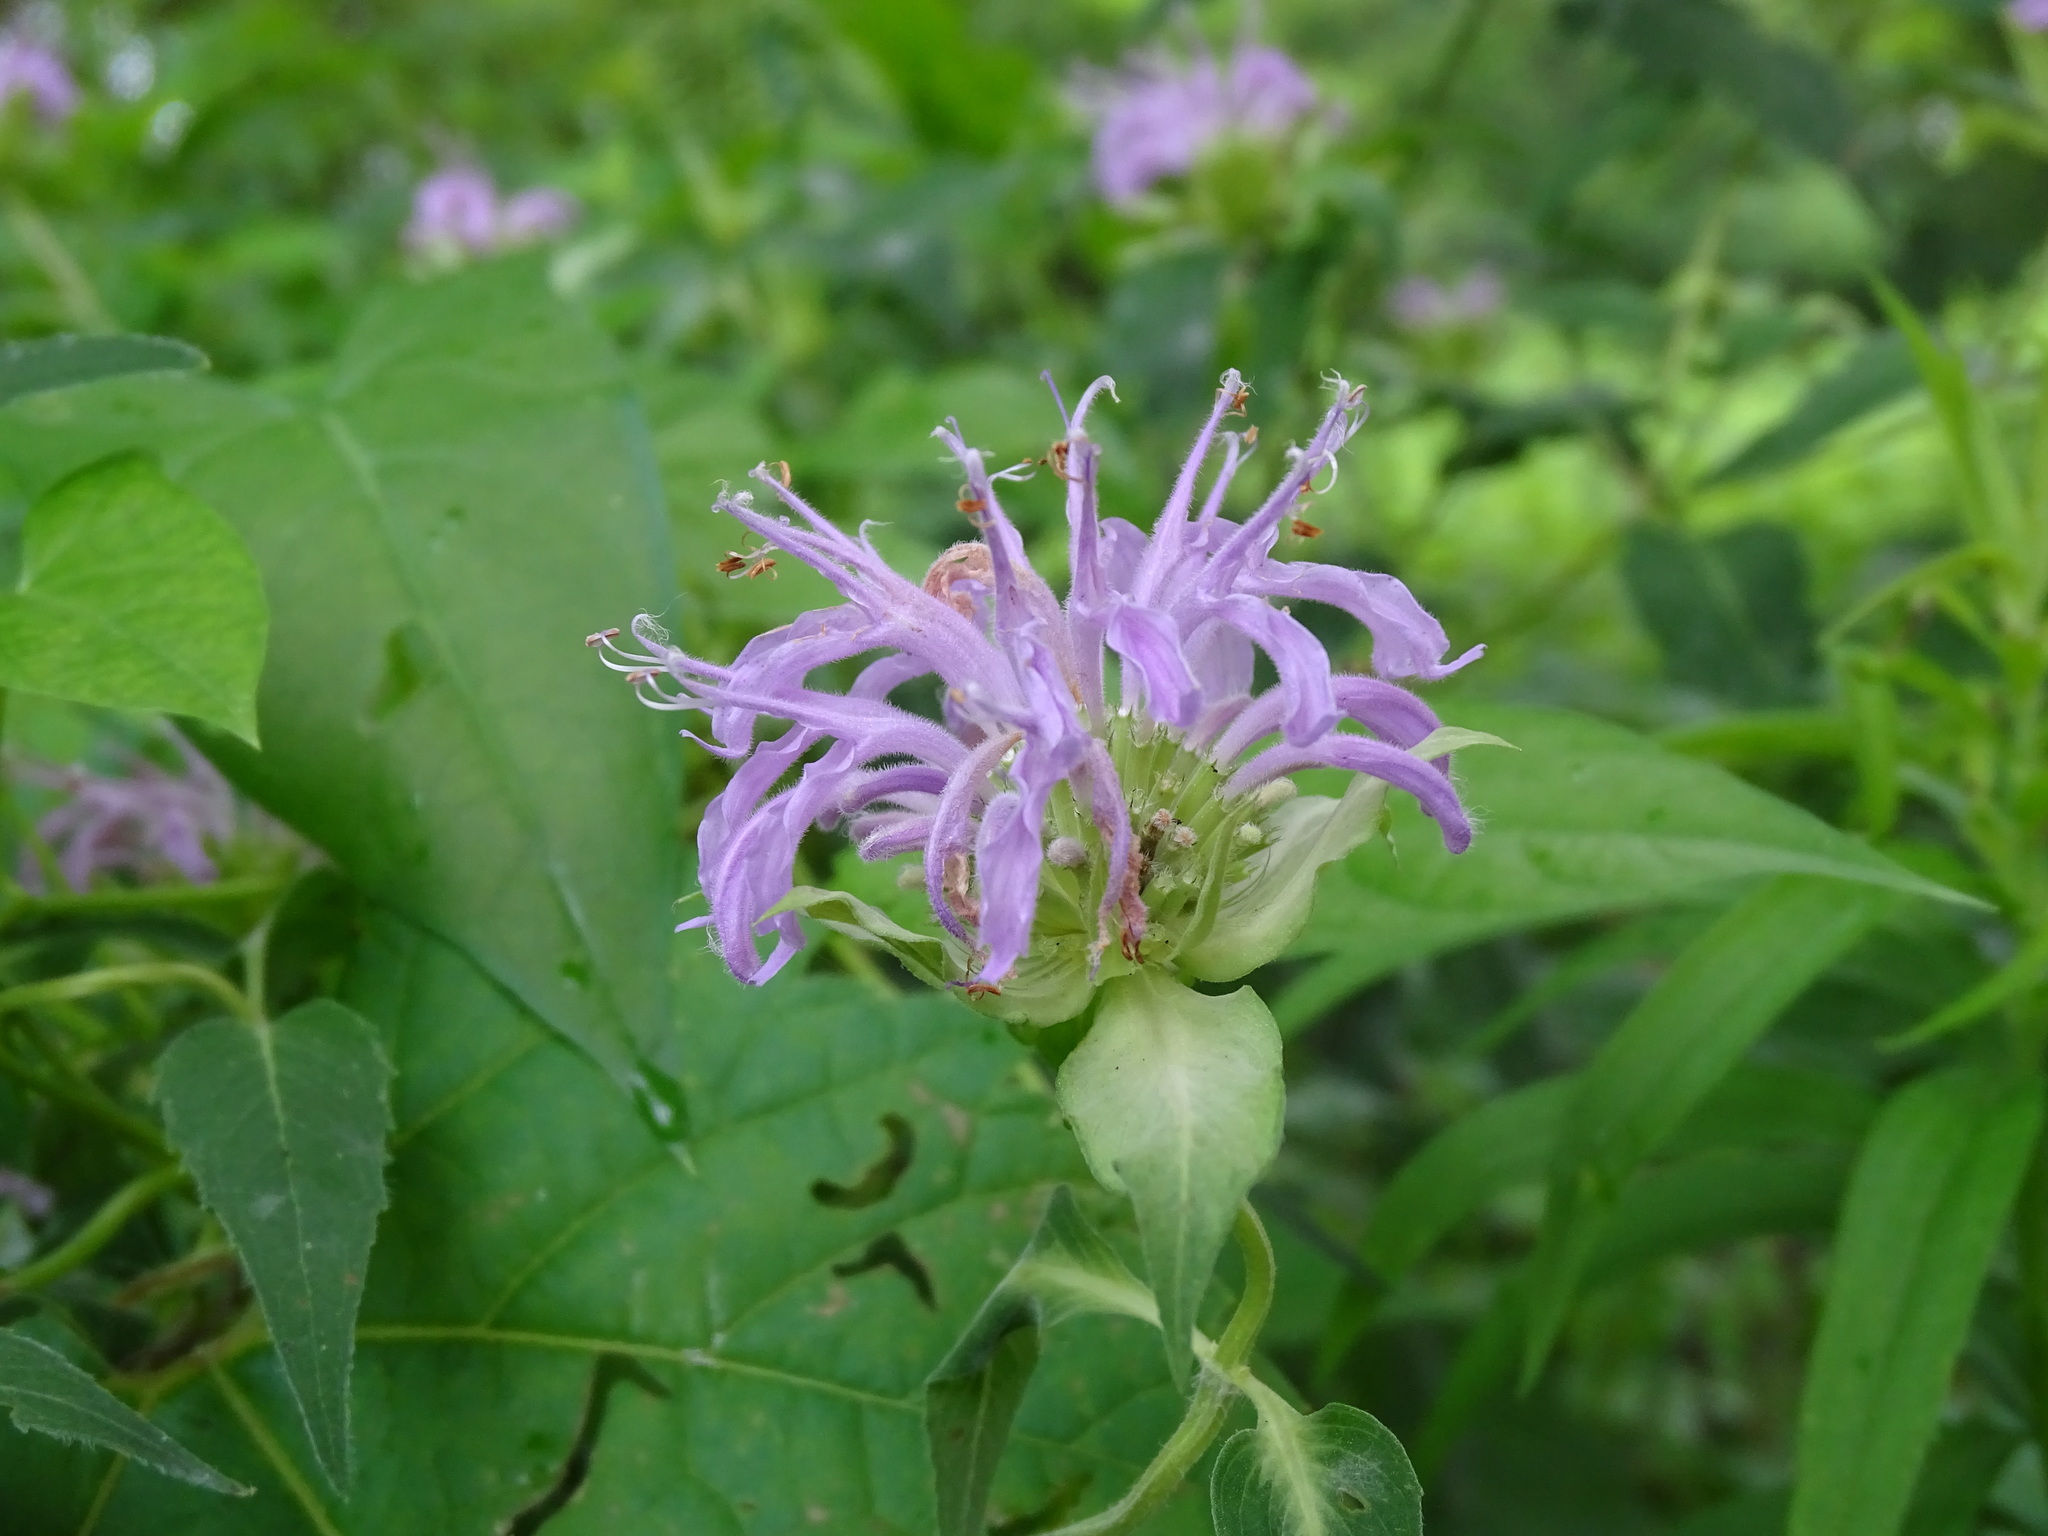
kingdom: Plantae
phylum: Tracheophyta
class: Magnoliopsida
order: Lamiales
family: Lamiaceae
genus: Monarda
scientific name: Monarda fistulosa
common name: Purple beebalm
